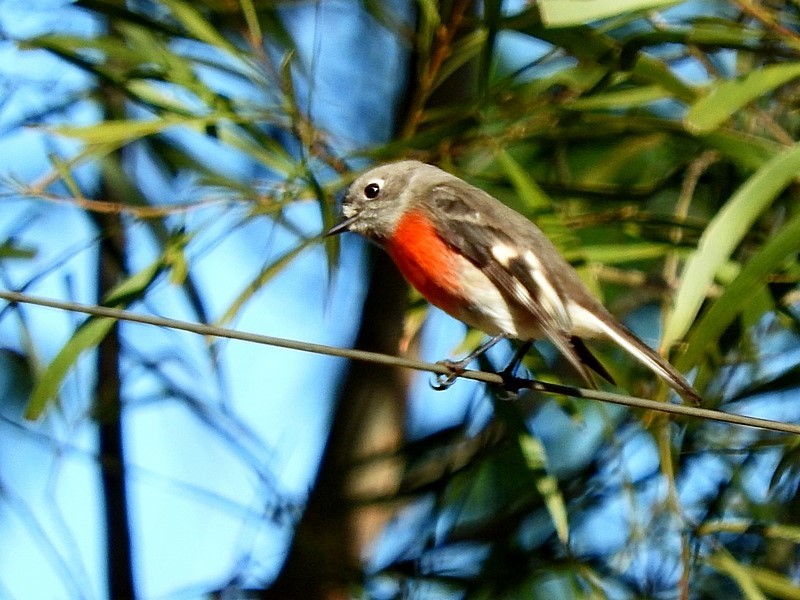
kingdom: Animalia
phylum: Chordata
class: Aves
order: Passeriformes
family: Petroicidae
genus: Petroica
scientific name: Petroica boodang
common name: Scarlet robin
